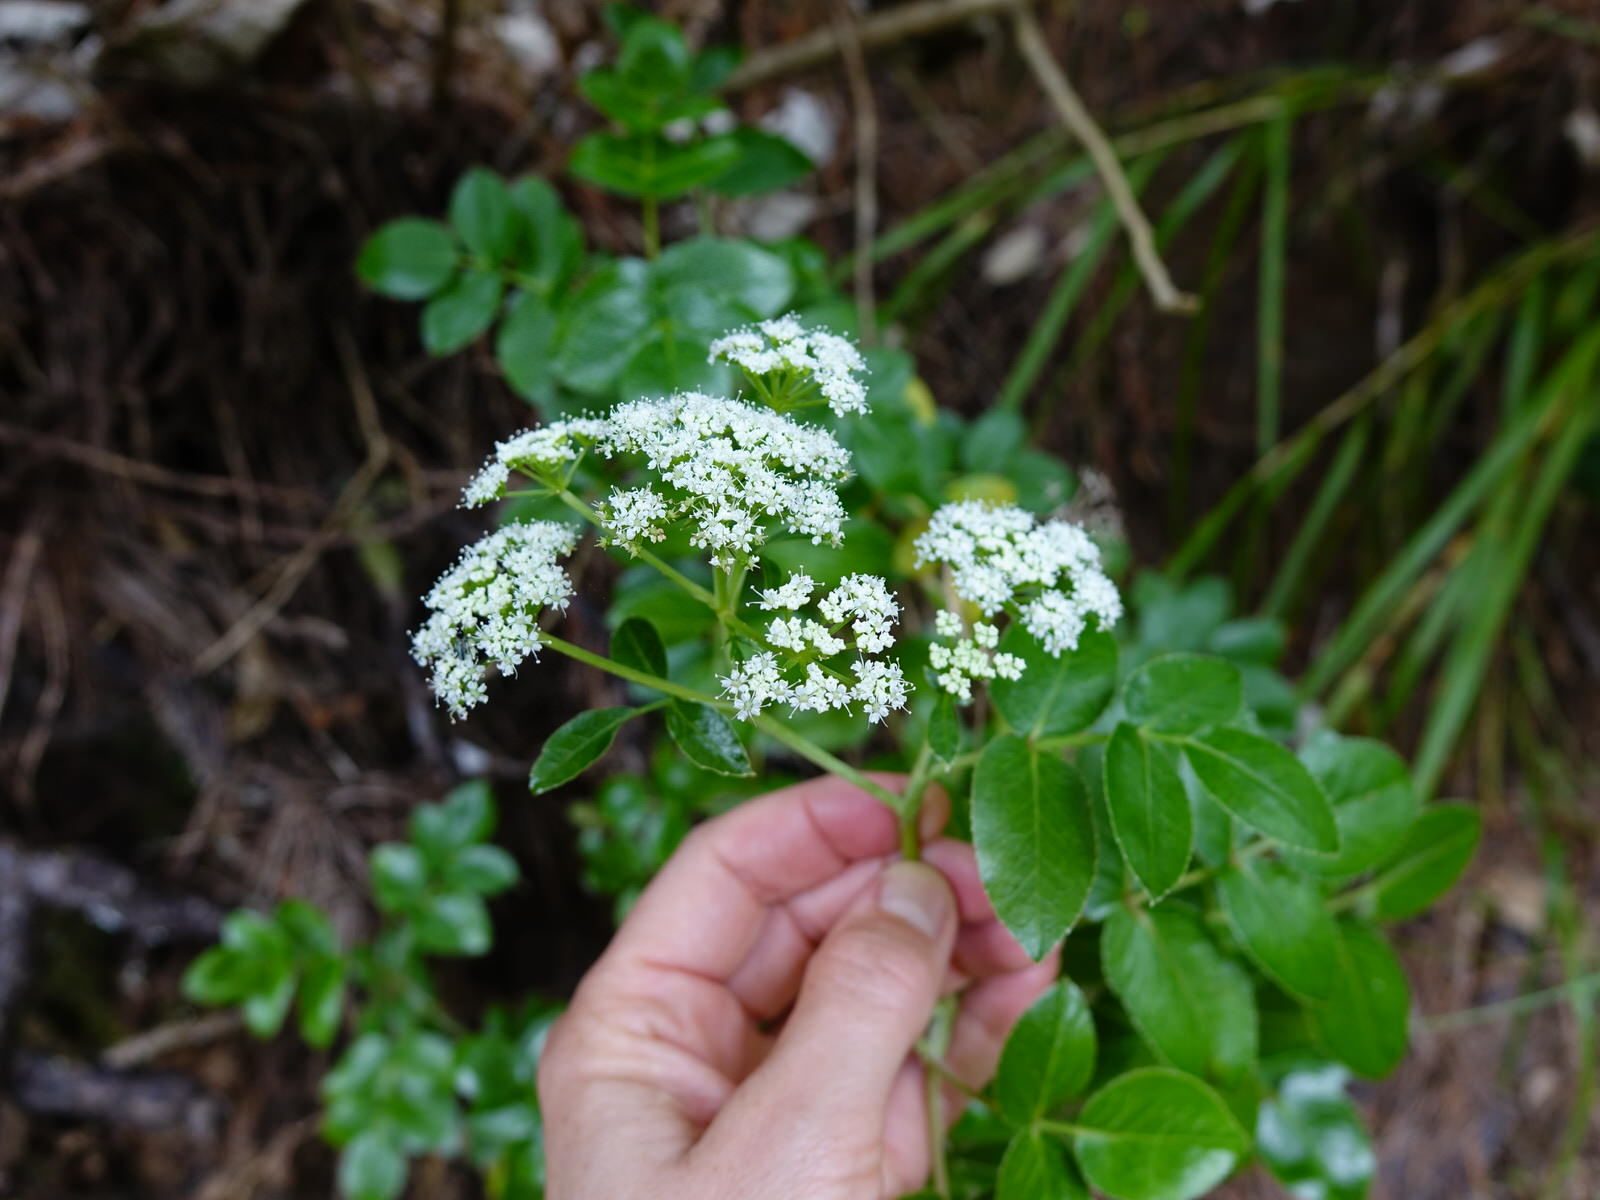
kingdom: Plantae
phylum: Tracheophyta
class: Magnoliopsida
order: Apiales
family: Apiaceae
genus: Scandia
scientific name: Scandia rosifolia
